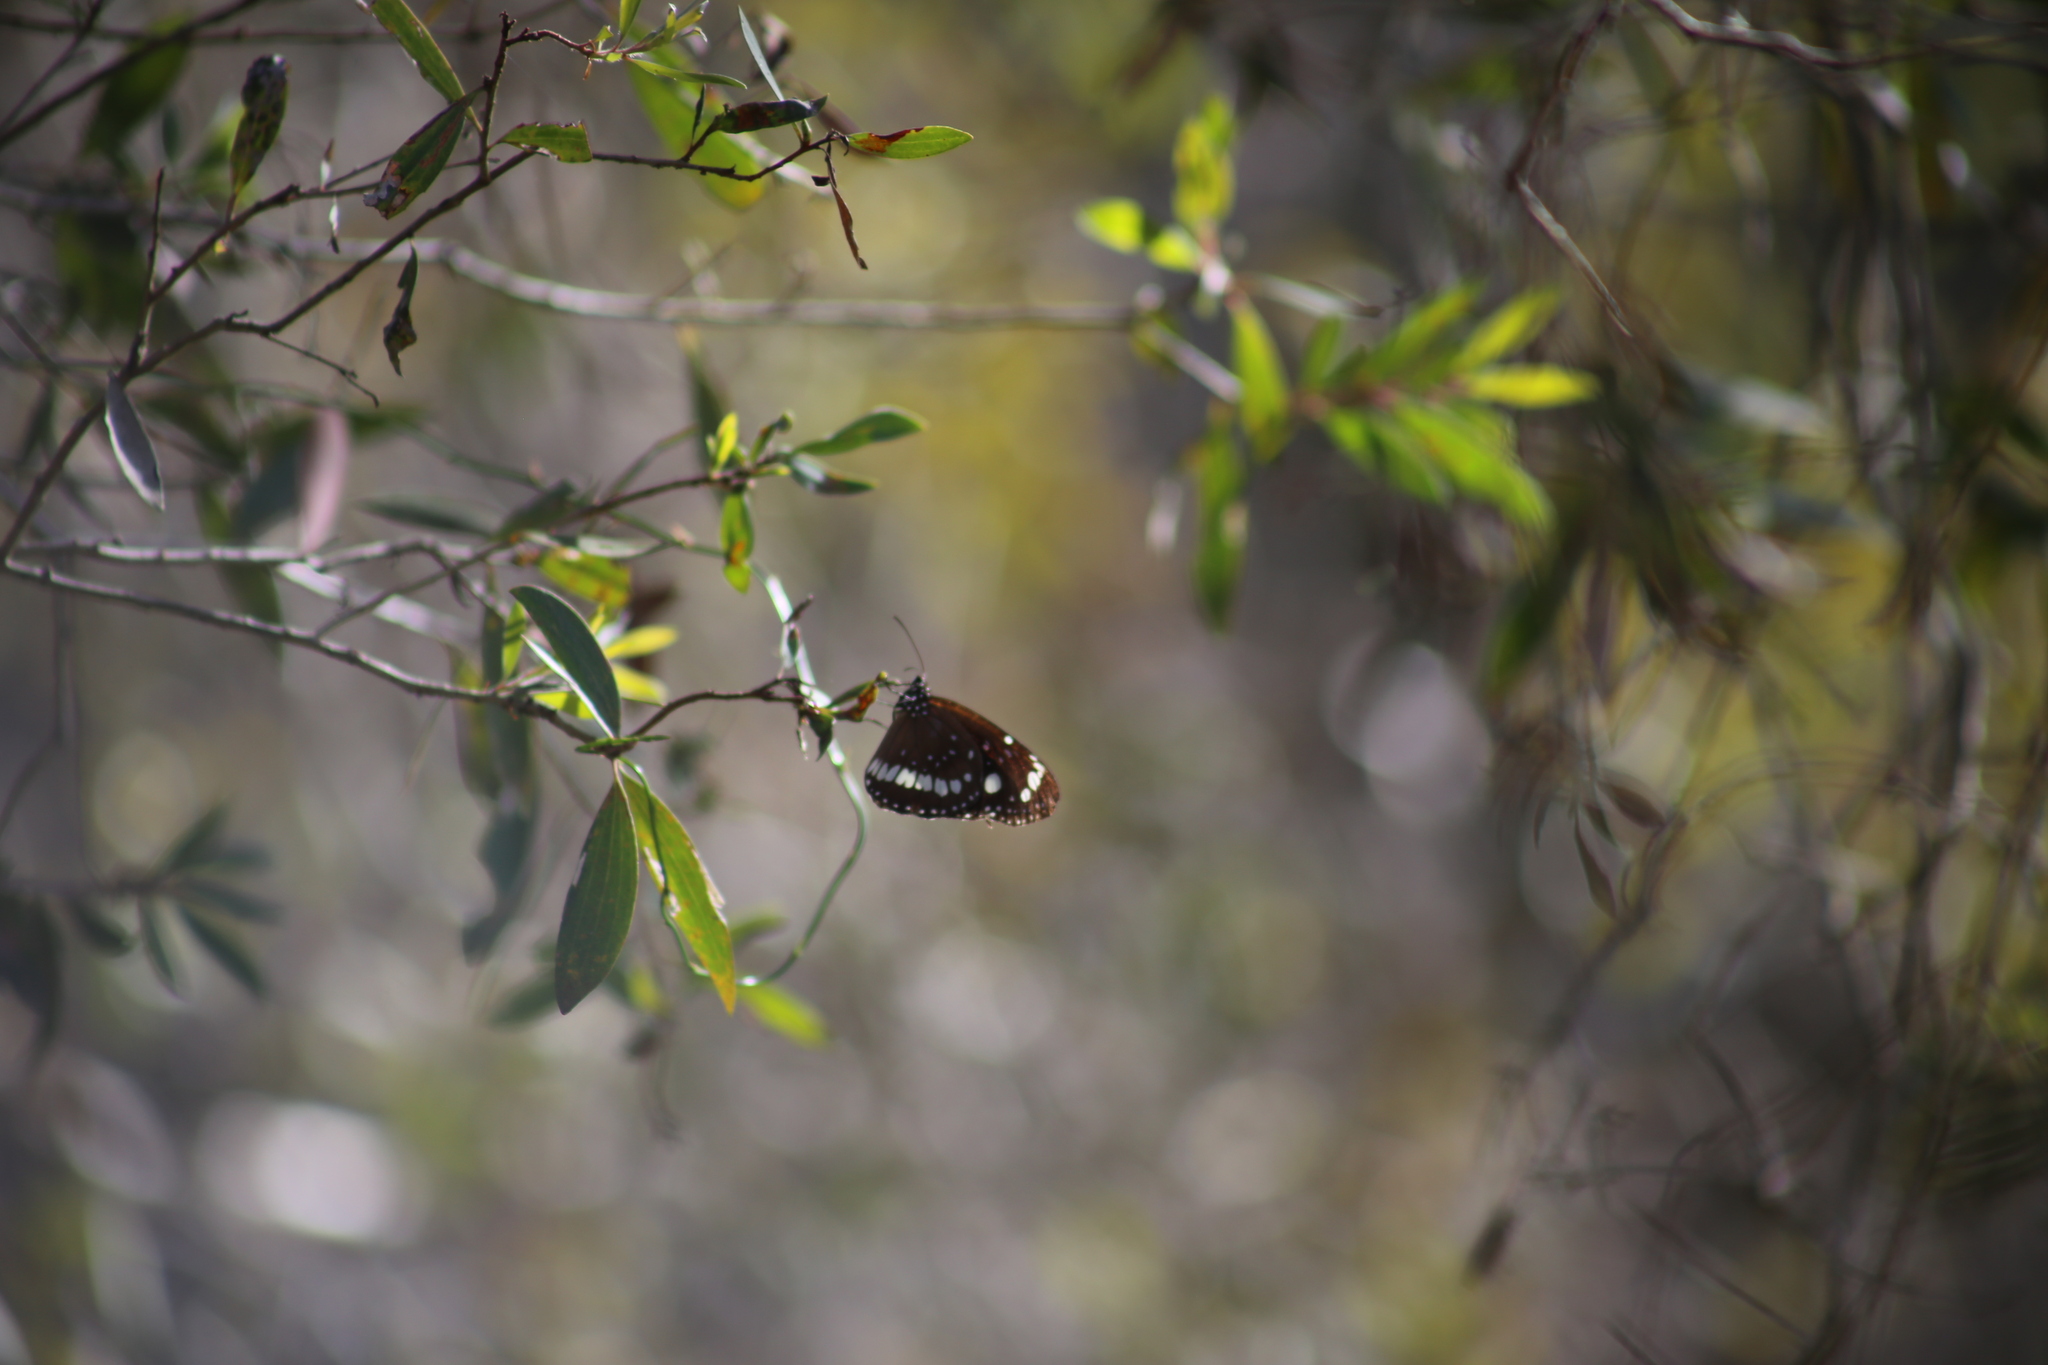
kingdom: Animalia
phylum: Arthropoda
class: Insecta
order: Lepidoptera
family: Nymphalidae
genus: Euploea
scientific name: Euploea core
